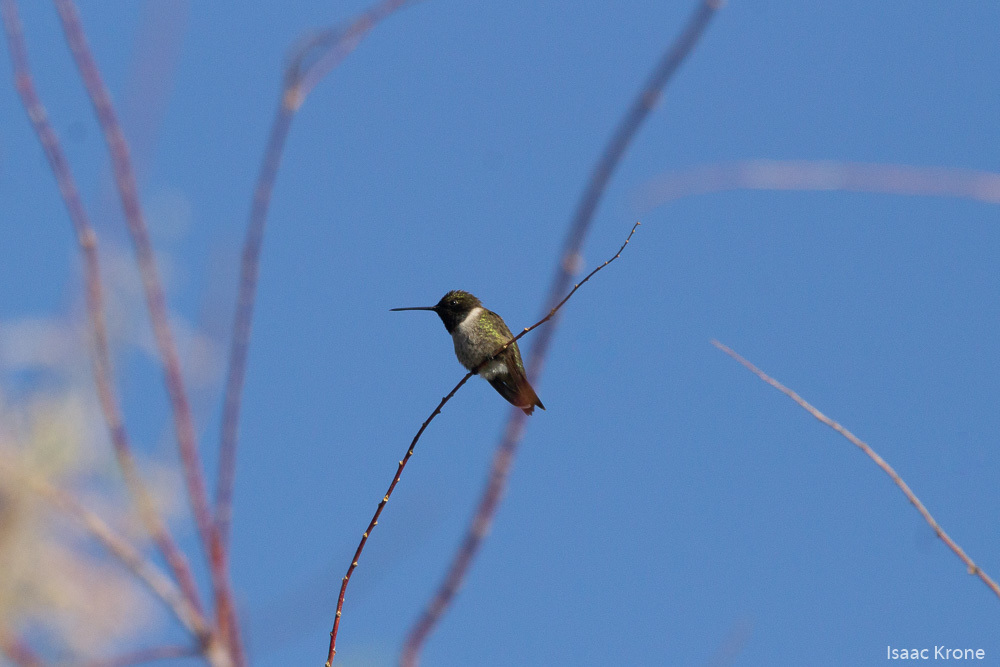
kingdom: Animalia
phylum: Chordata
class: Aves
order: Apodiformes
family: Trochilidae
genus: Archilochus
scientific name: Archilochus alexandri
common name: Black-chinned hummingbird
